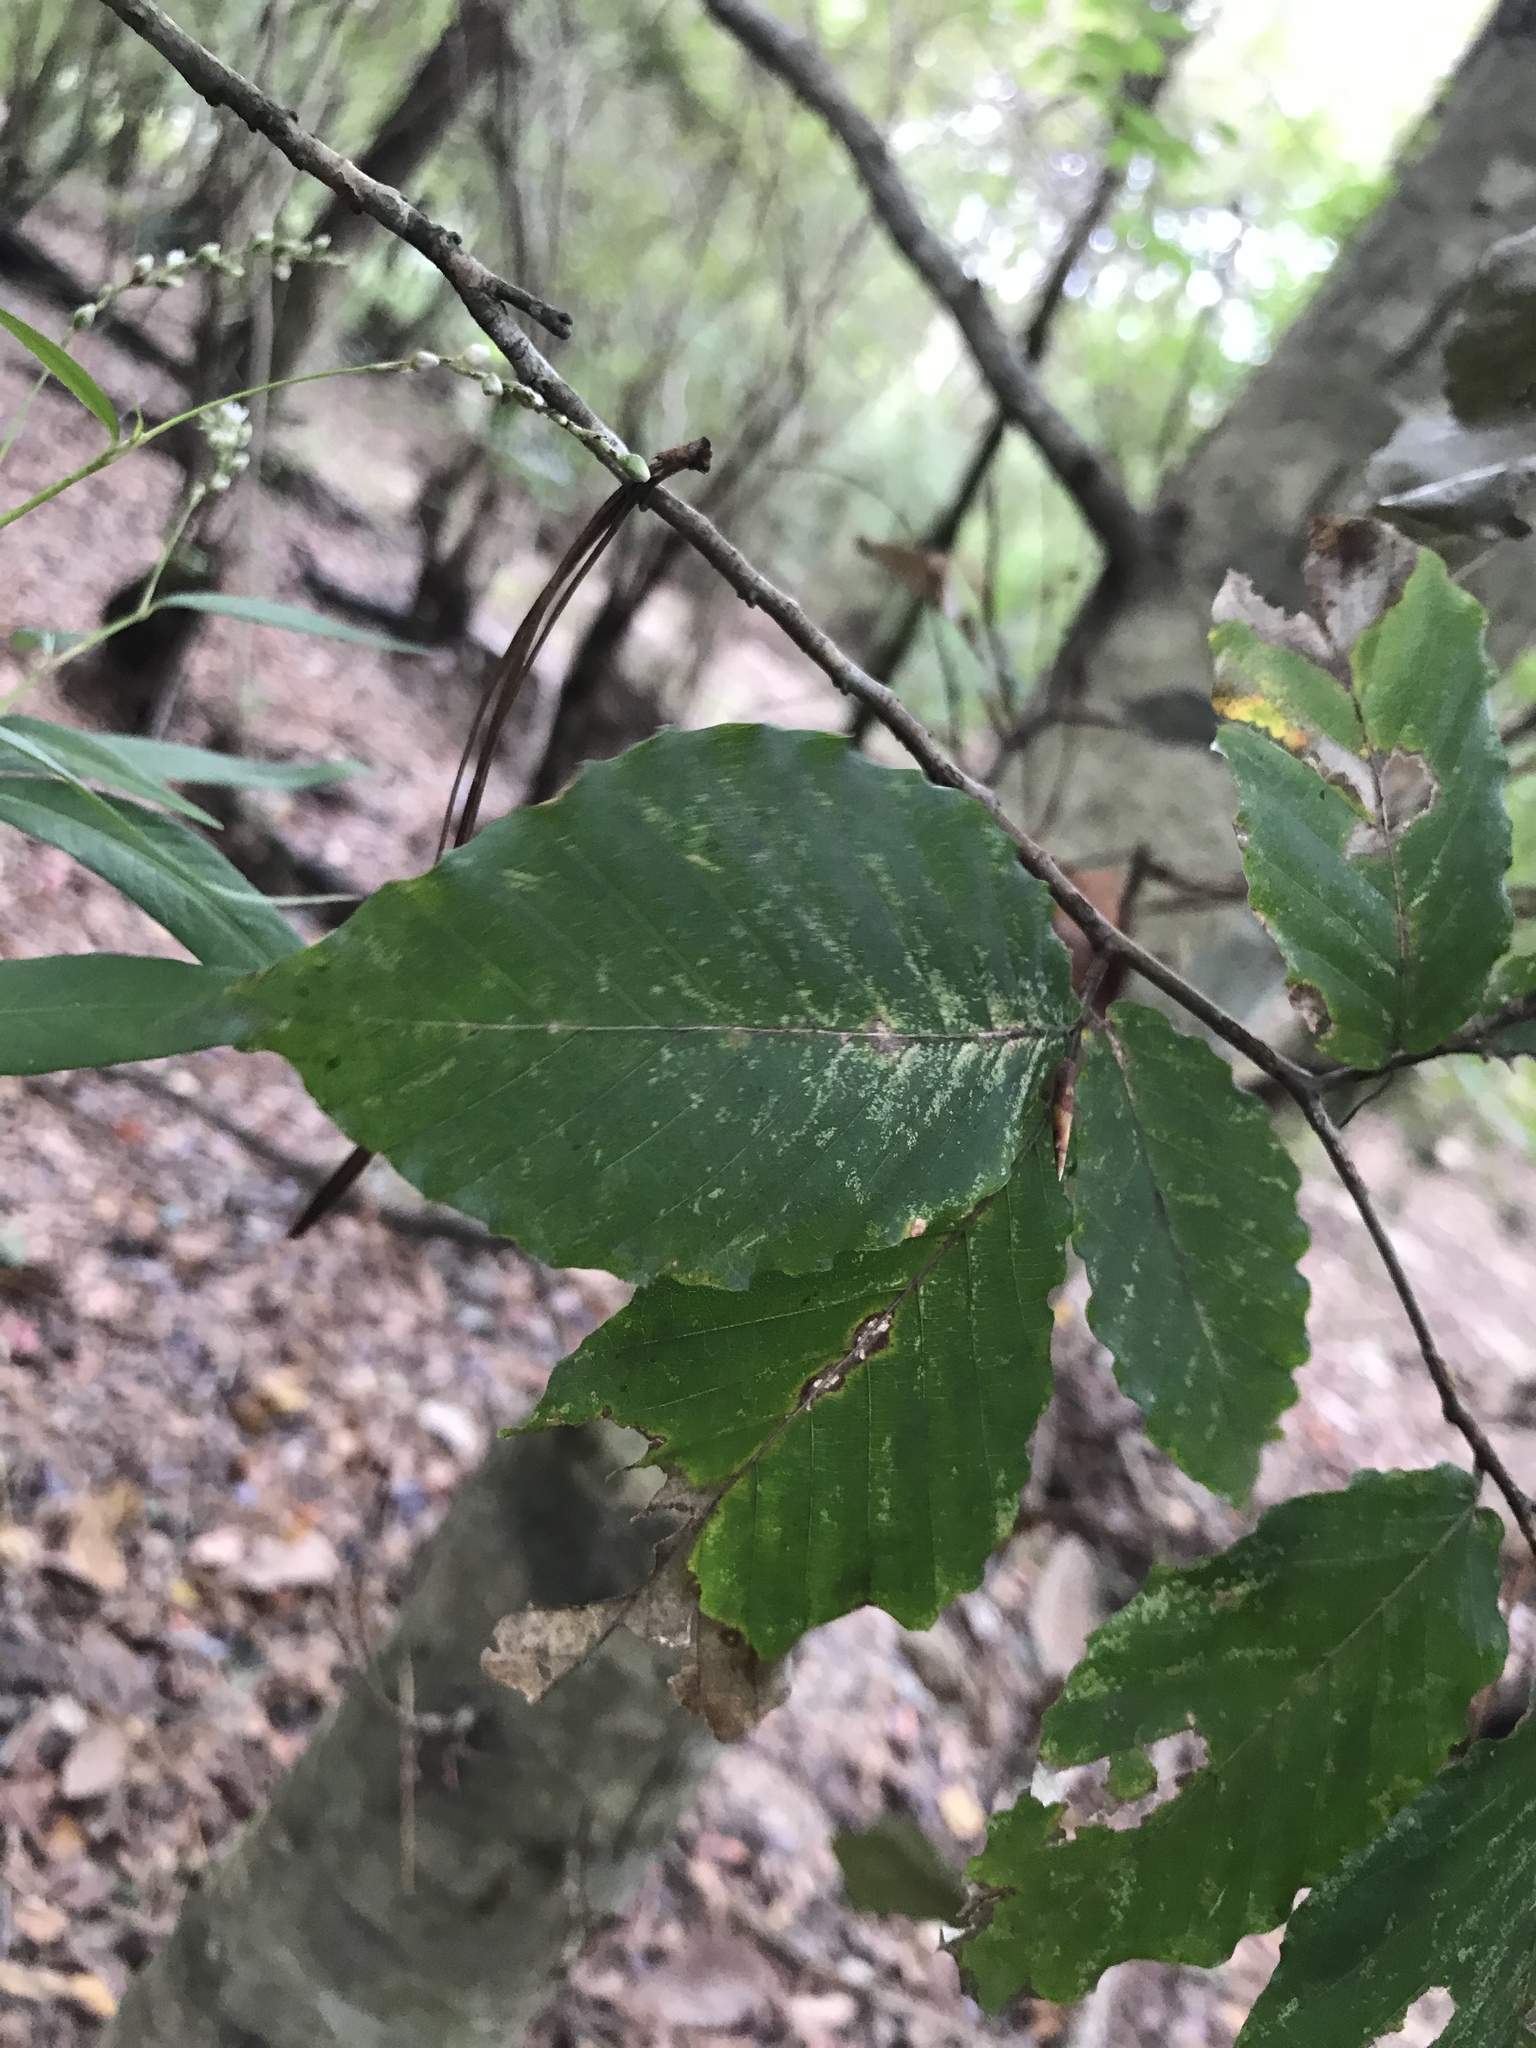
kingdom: Plantae
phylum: Tracheophyta
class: Magnoliopsida
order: Fagales
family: Fagaceae
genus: Fagus
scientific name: Fagus grandifolia
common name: American beech
